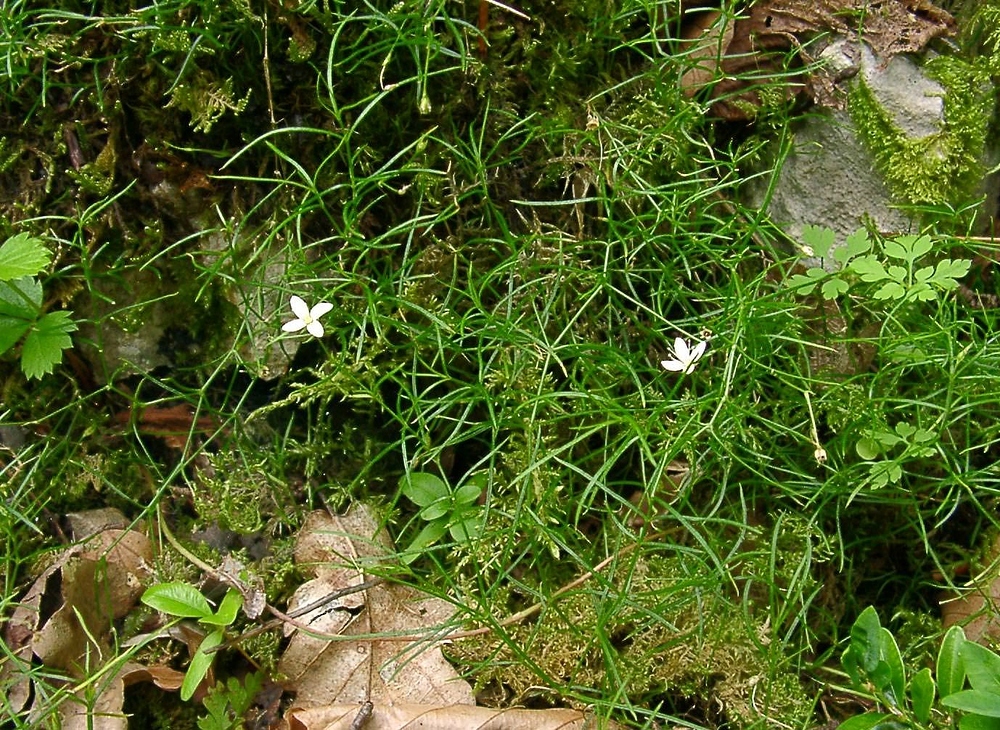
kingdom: Plantae
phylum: Tracheophyta
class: Magnoliopsida
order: Caryophyllales
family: Caryophyllaceae
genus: Moehringia
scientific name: Moehringia muscosa
